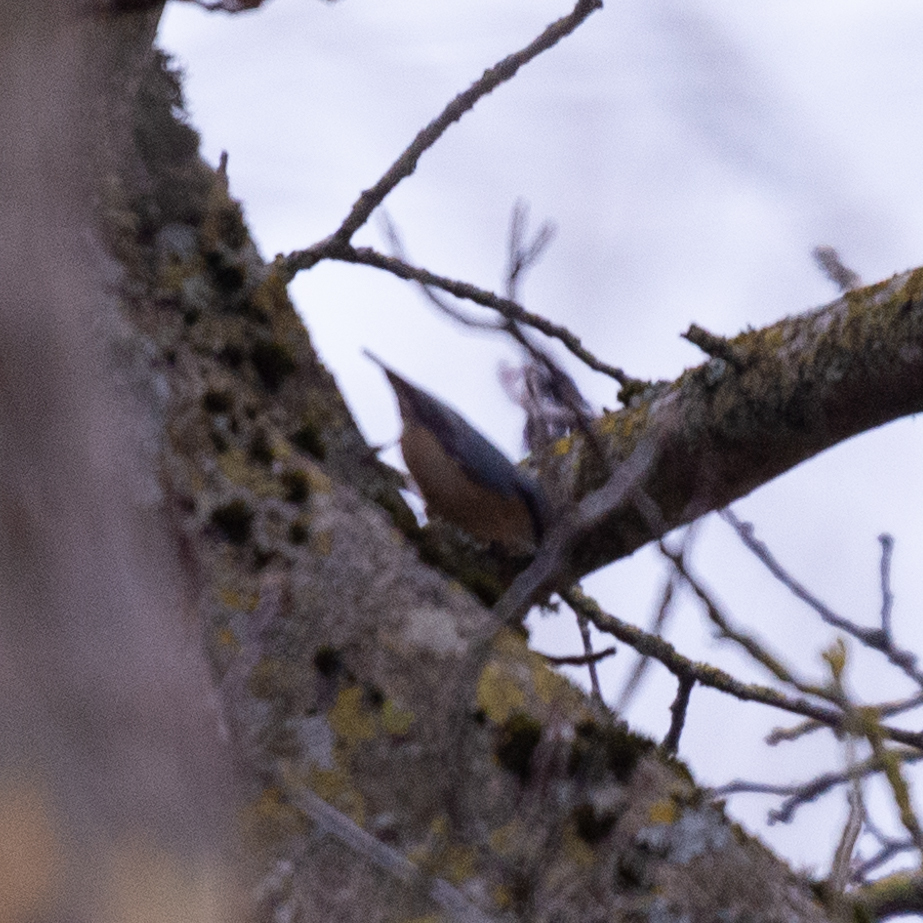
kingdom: Animalia
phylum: Chordata
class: Aves
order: Passeriformes
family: Sittidae
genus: Sitta
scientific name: Sitta europaea
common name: Eurasian nuthatch
